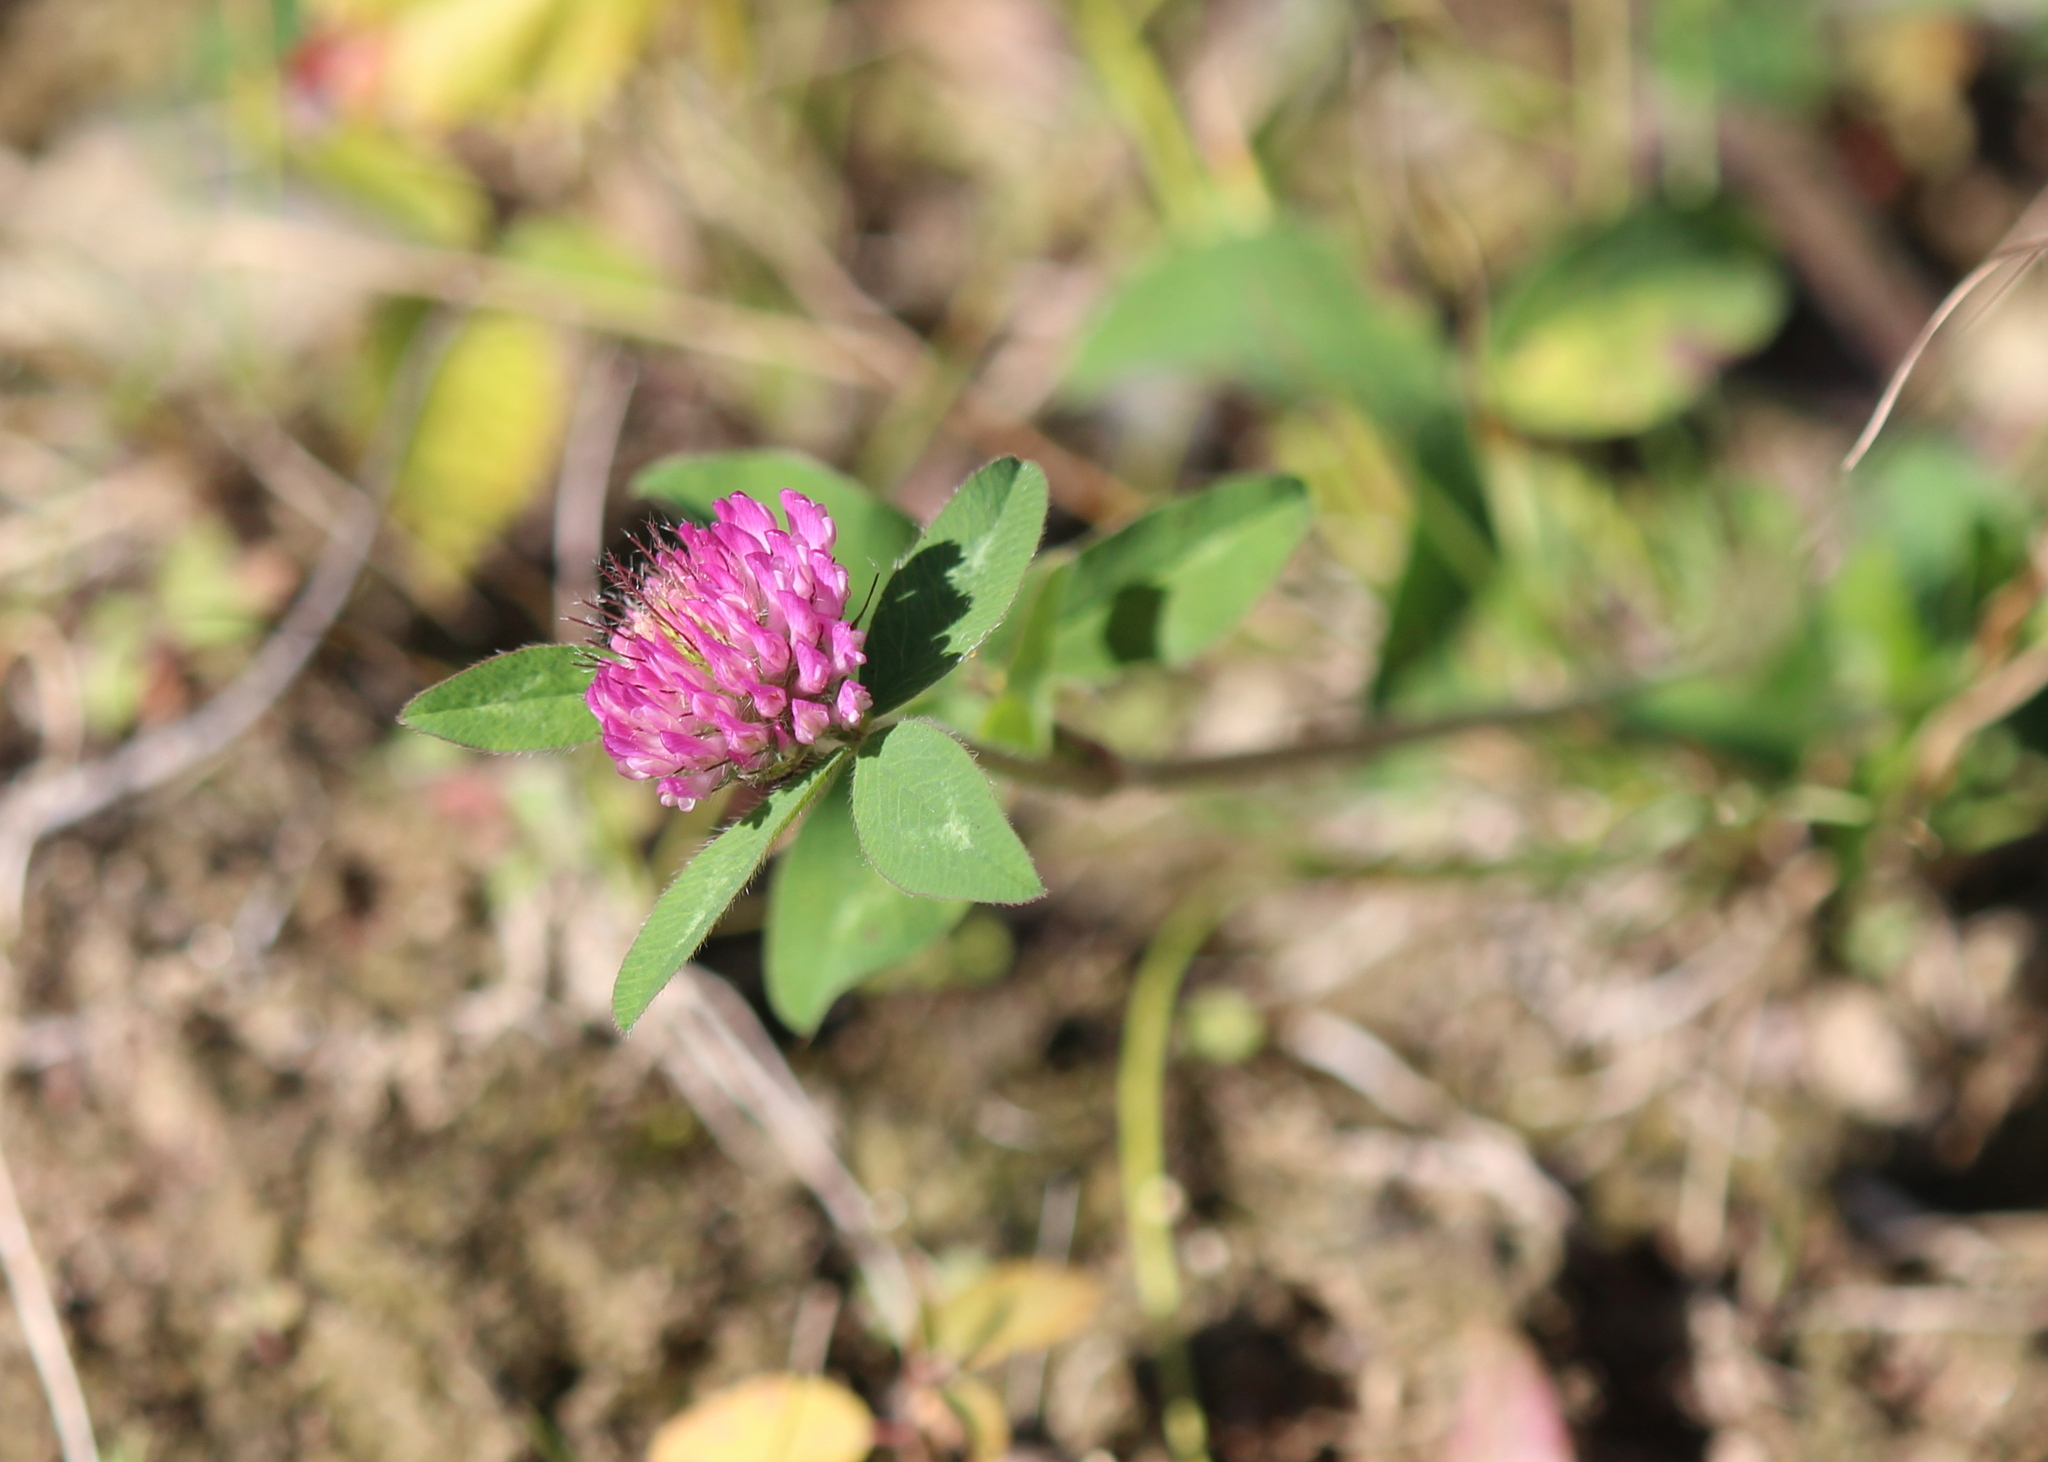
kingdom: Plantae
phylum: Tracheophyta
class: Magnoliopsida
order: Fabales
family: Fabaceae
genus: Trifolium
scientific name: Trifolium pratense
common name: Red clover
